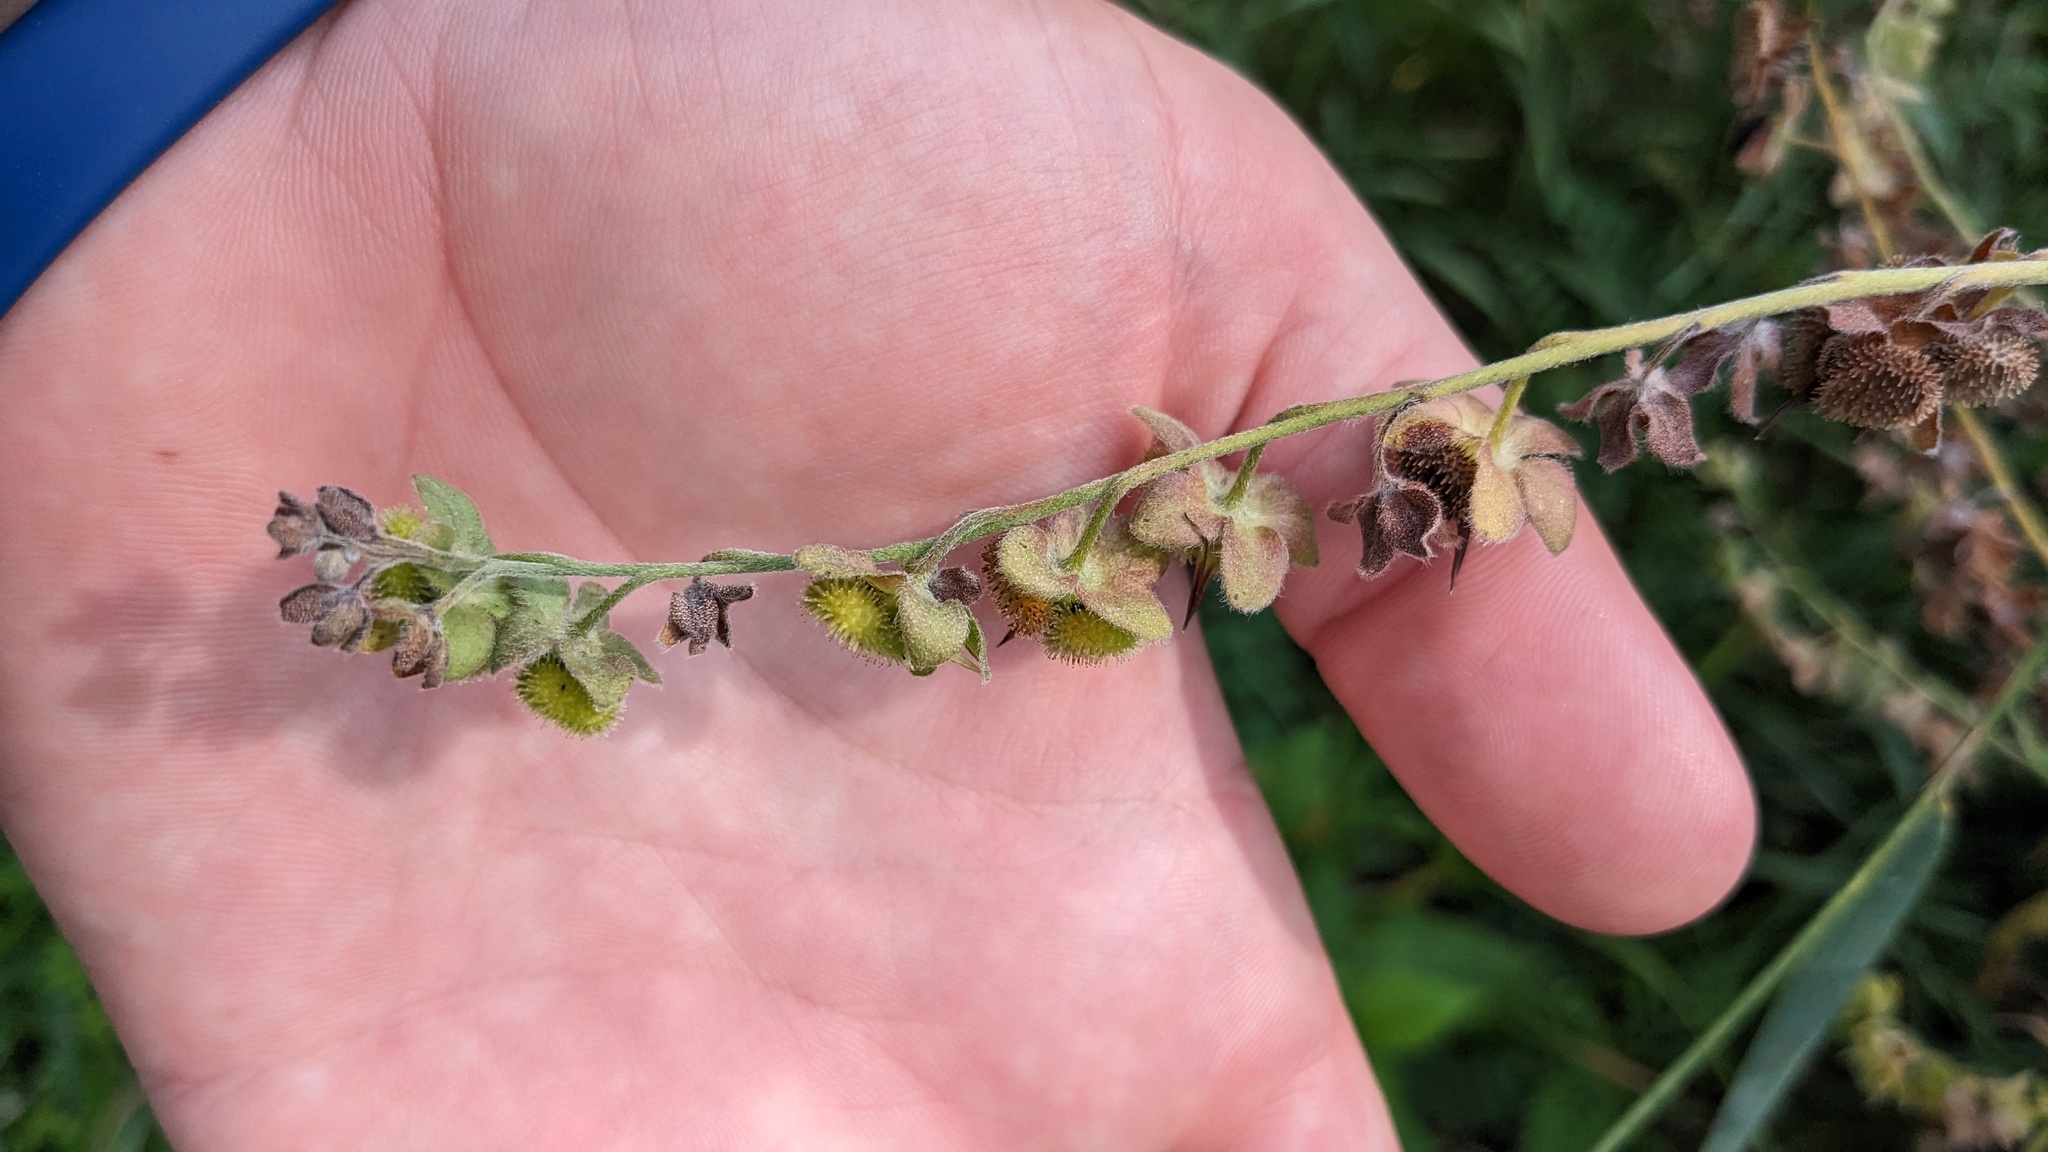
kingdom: Plantae
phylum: Tracheophyta
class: Magnoliopsida
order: Boraginales
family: Boraginaceae
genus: Cynoglossum
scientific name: Cynoglossum officinale
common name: Hound's-tongue
